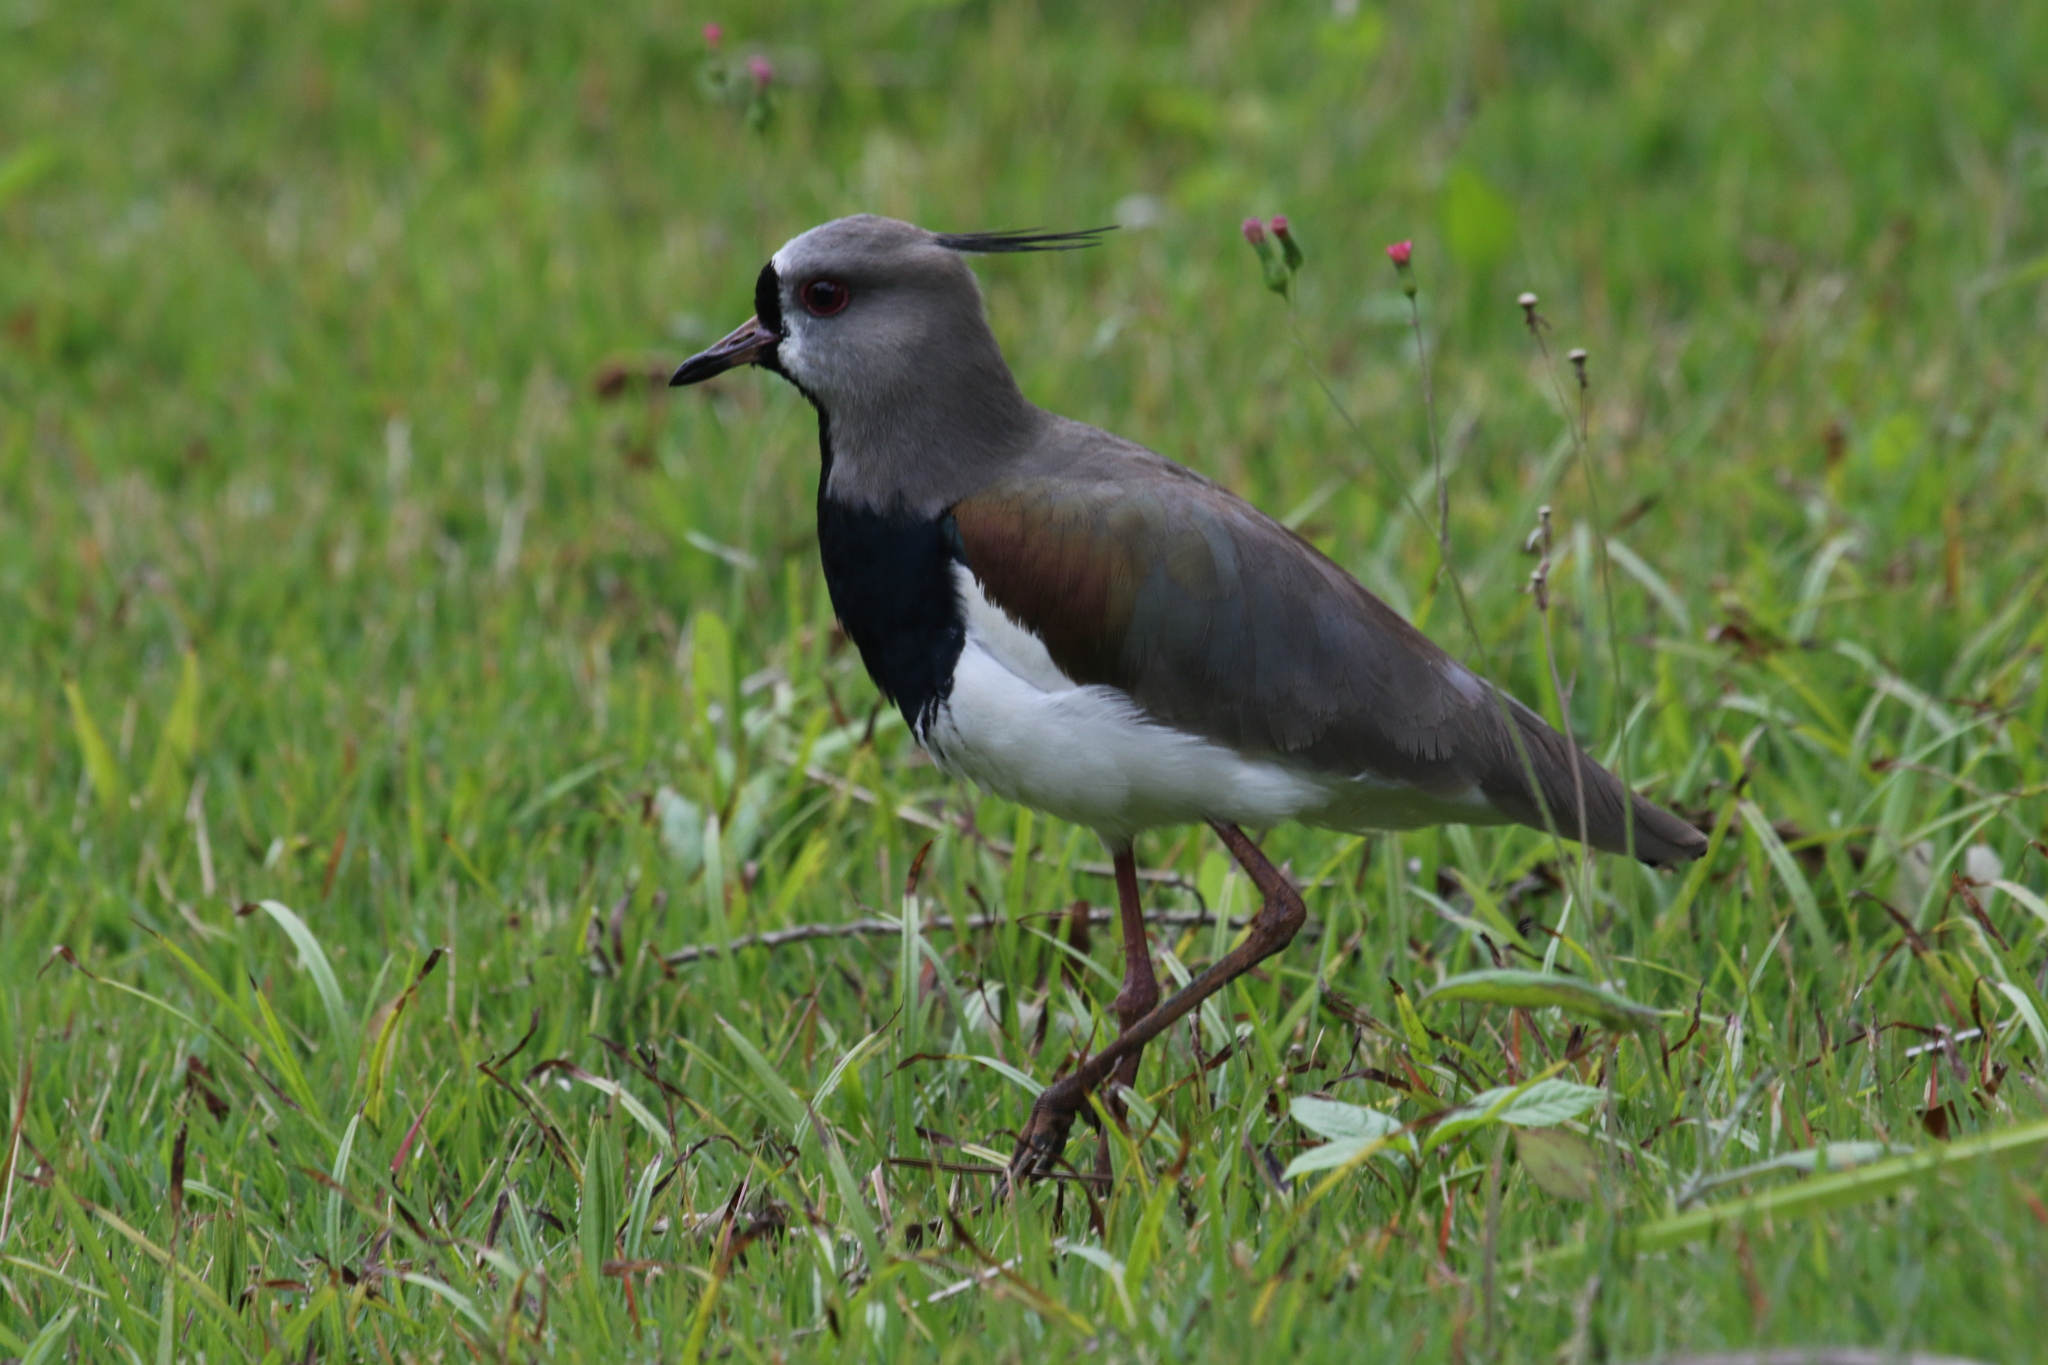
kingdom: Animalia
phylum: Chordata
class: Aves
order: Charadriiformes
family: Charadriidae
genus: Vanellus
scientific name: Vanellus chilensis
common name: Southern lapwing
